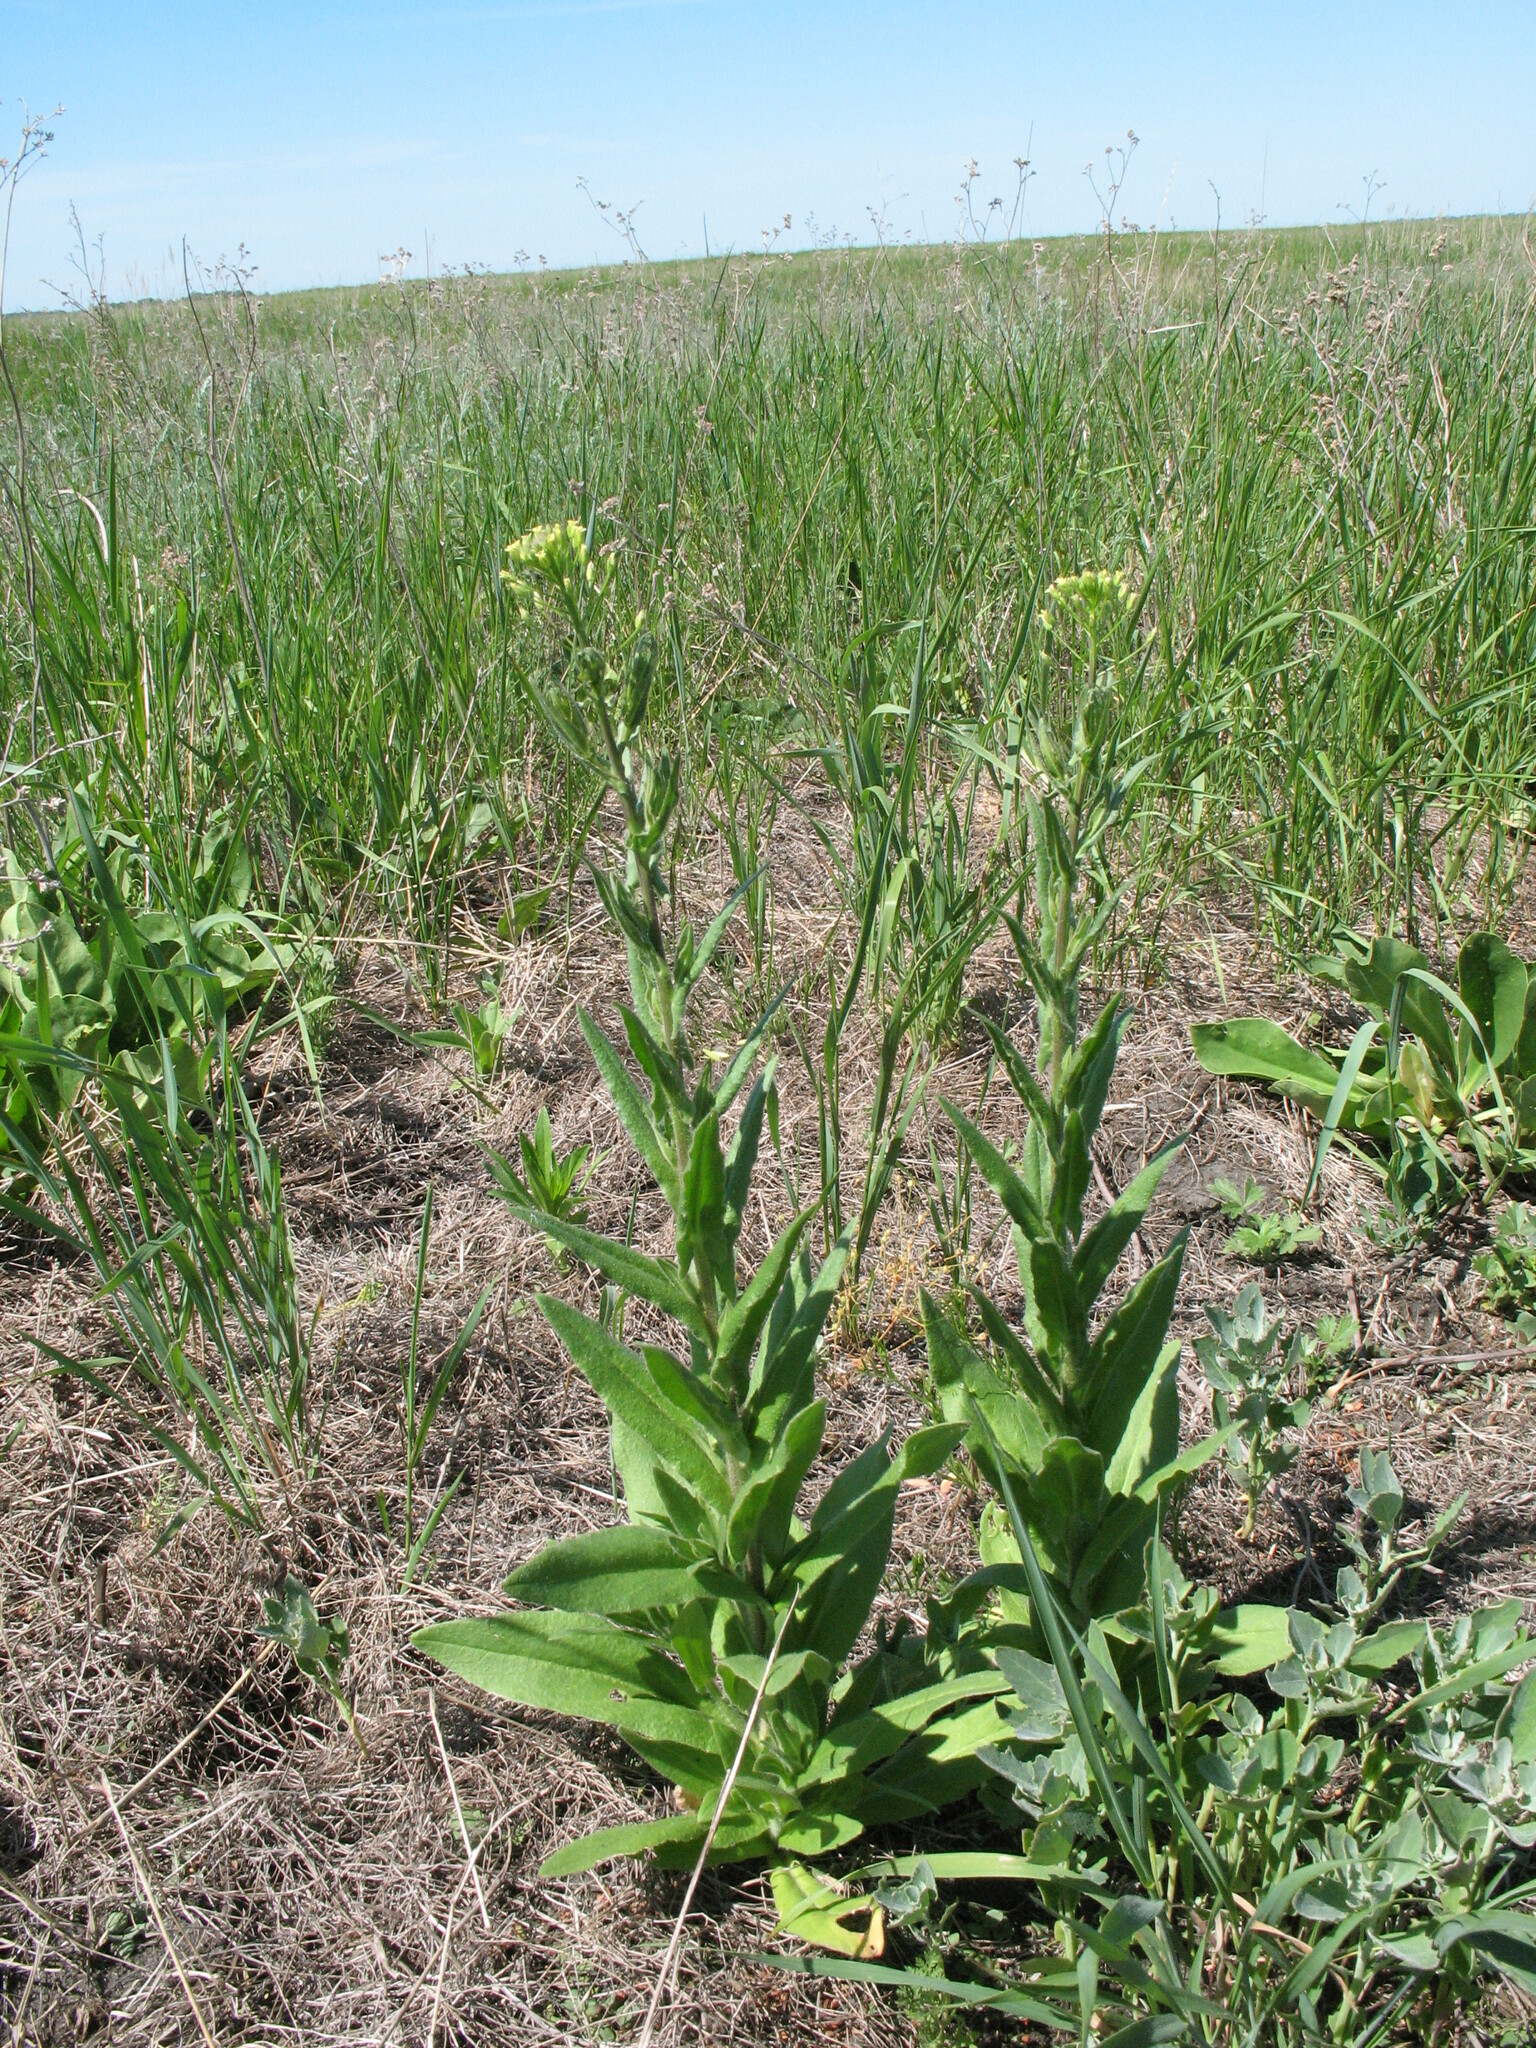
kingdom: Plantae
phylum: Tracheophyta
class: Magnoliopsida
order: Brassicales
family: Brassicaceae
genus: Camelina
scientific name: Camelina microcarpa
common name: Lesser gold-of-pleasure
